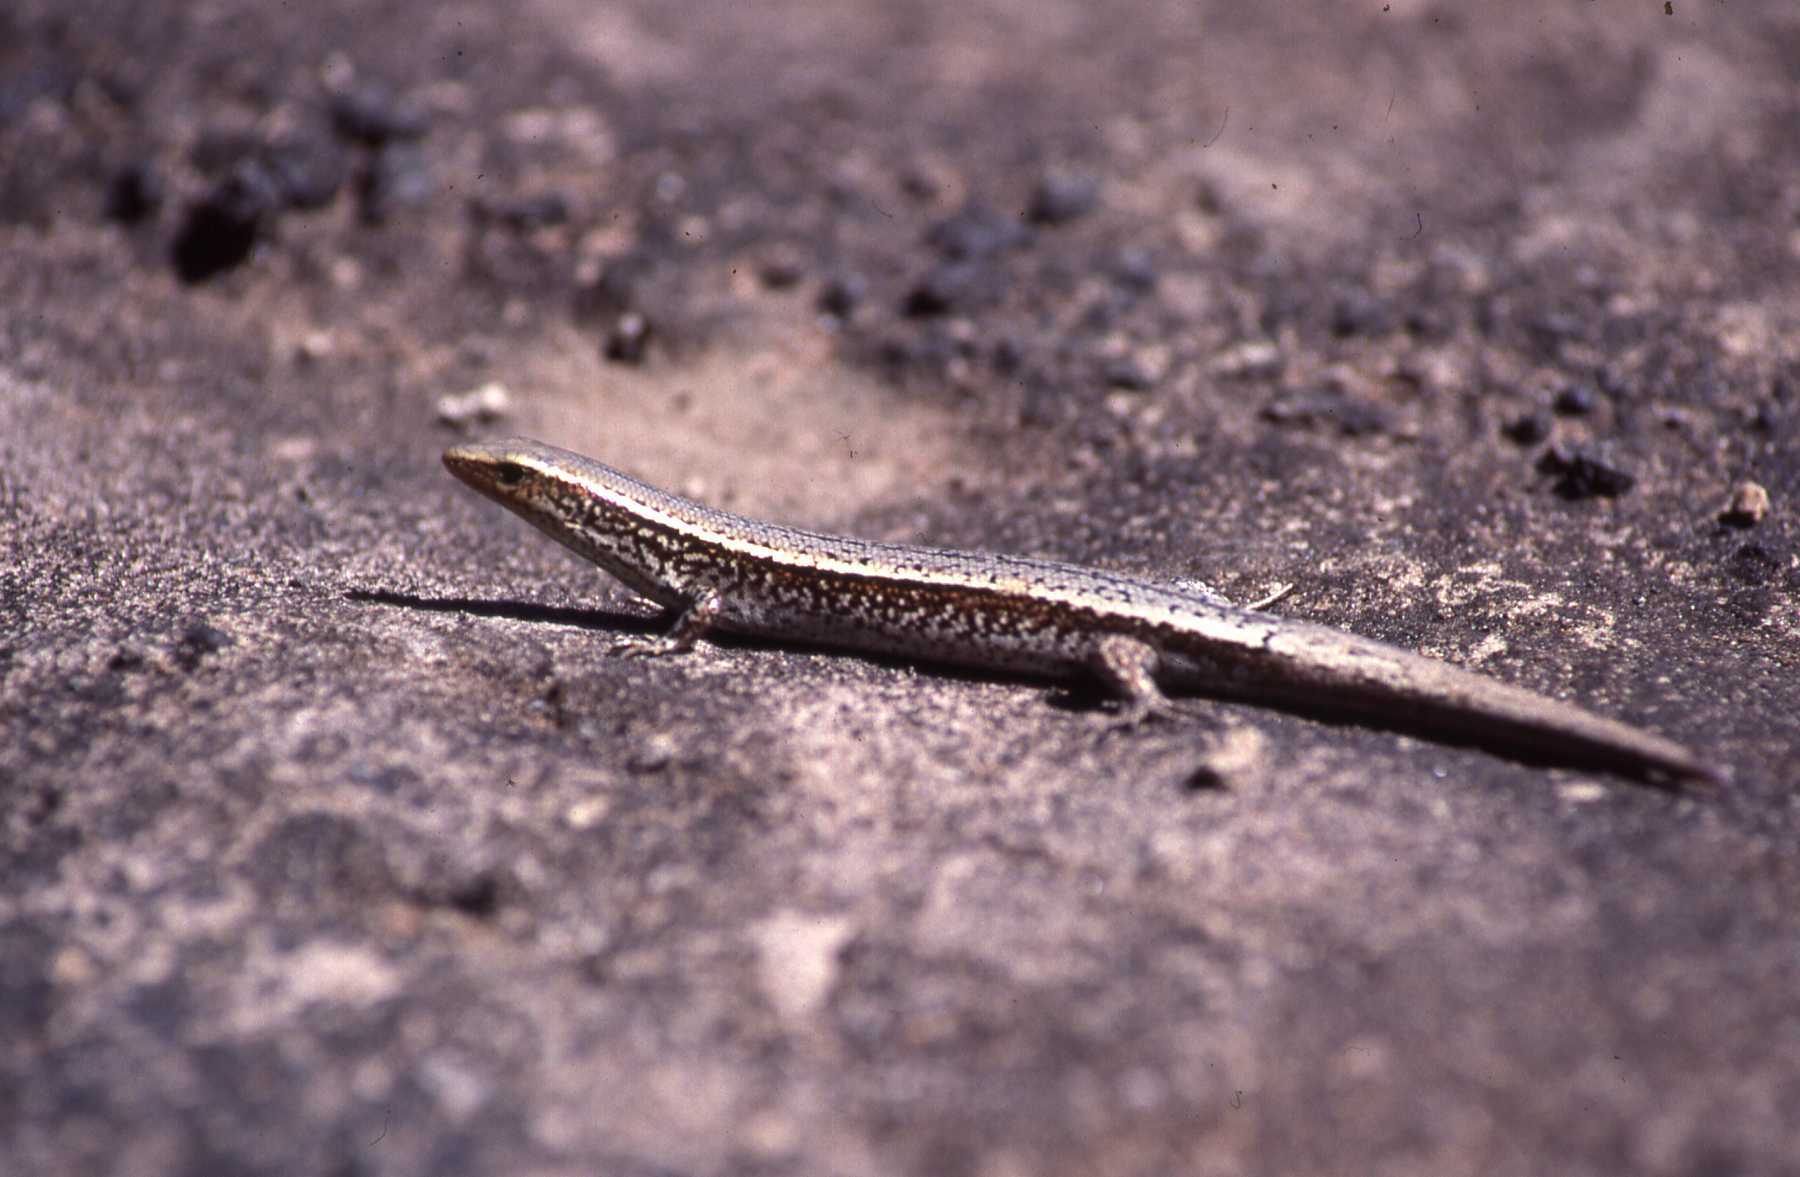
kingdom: Animalia
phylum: Chordata
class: Squamata
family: Scincidae
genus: Gongylomorphus
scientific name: Gongylomorphus bojerii
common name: Bojer's skink
